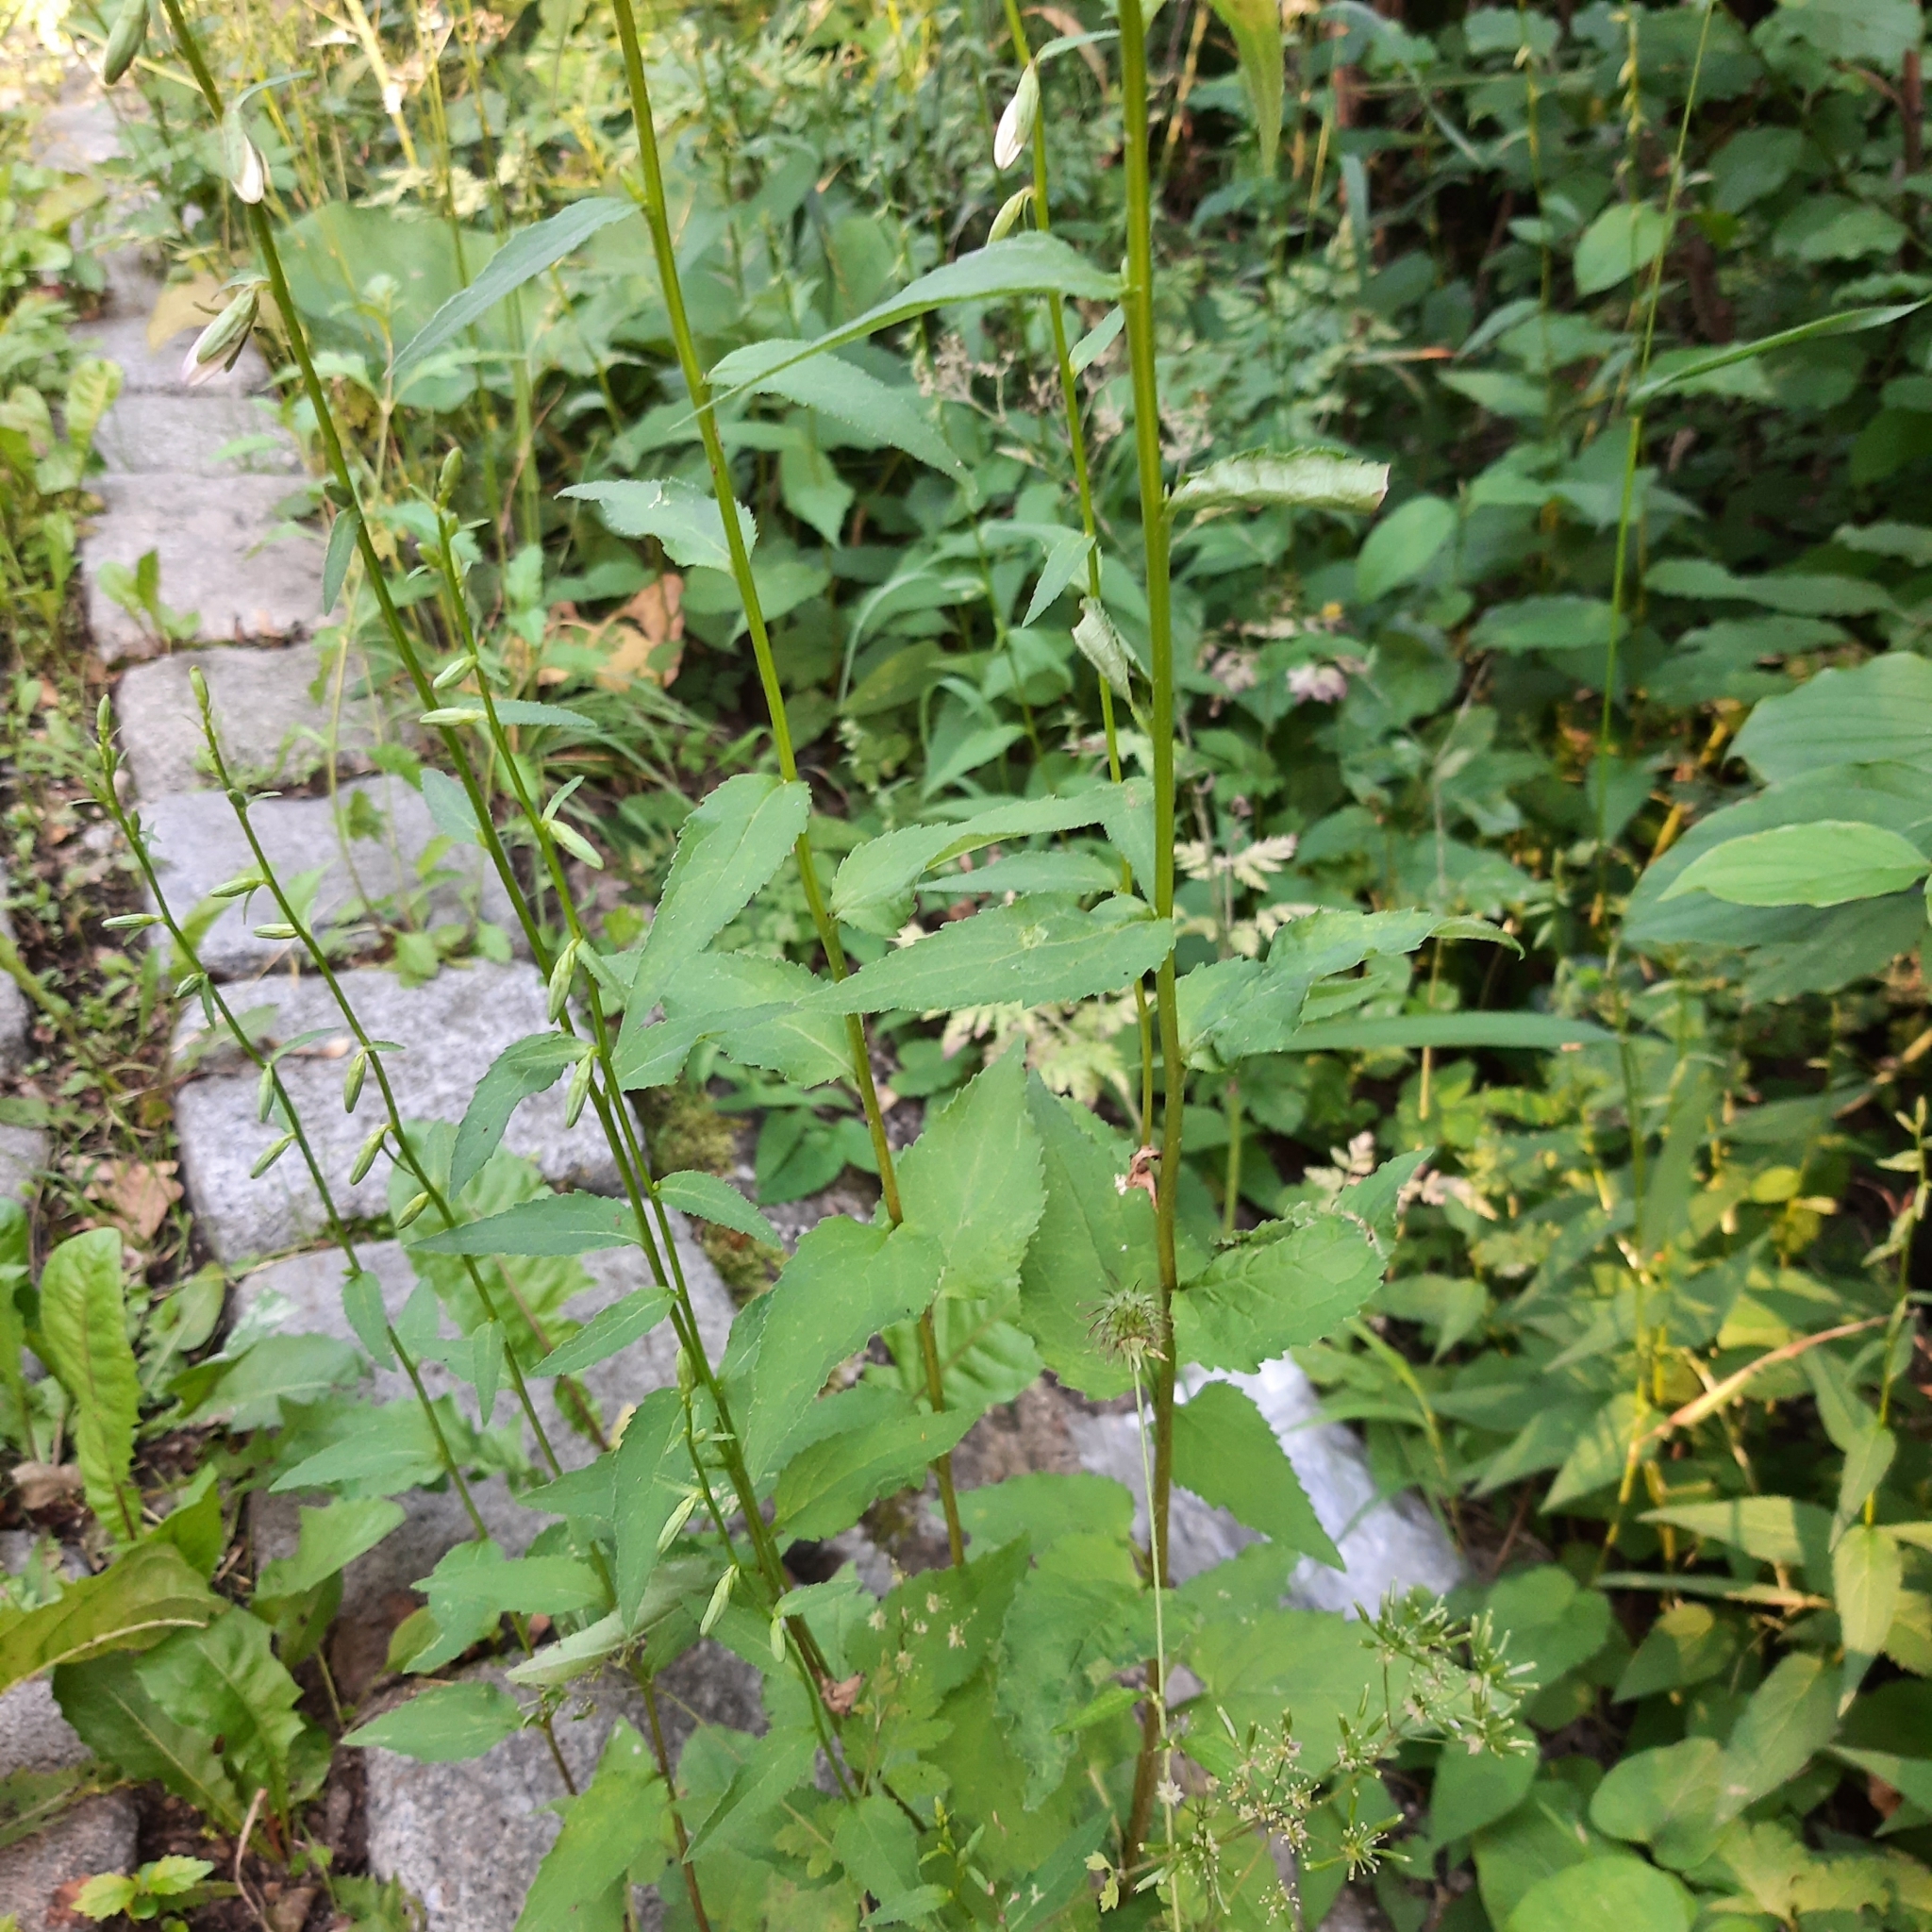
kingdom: Plantae
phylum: Tracheophyta
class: Magnoliopsida
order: Asterales
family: Campanulaceae
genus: Campanula
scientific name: Campanula rapunculoides
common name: Creeping bellflower
